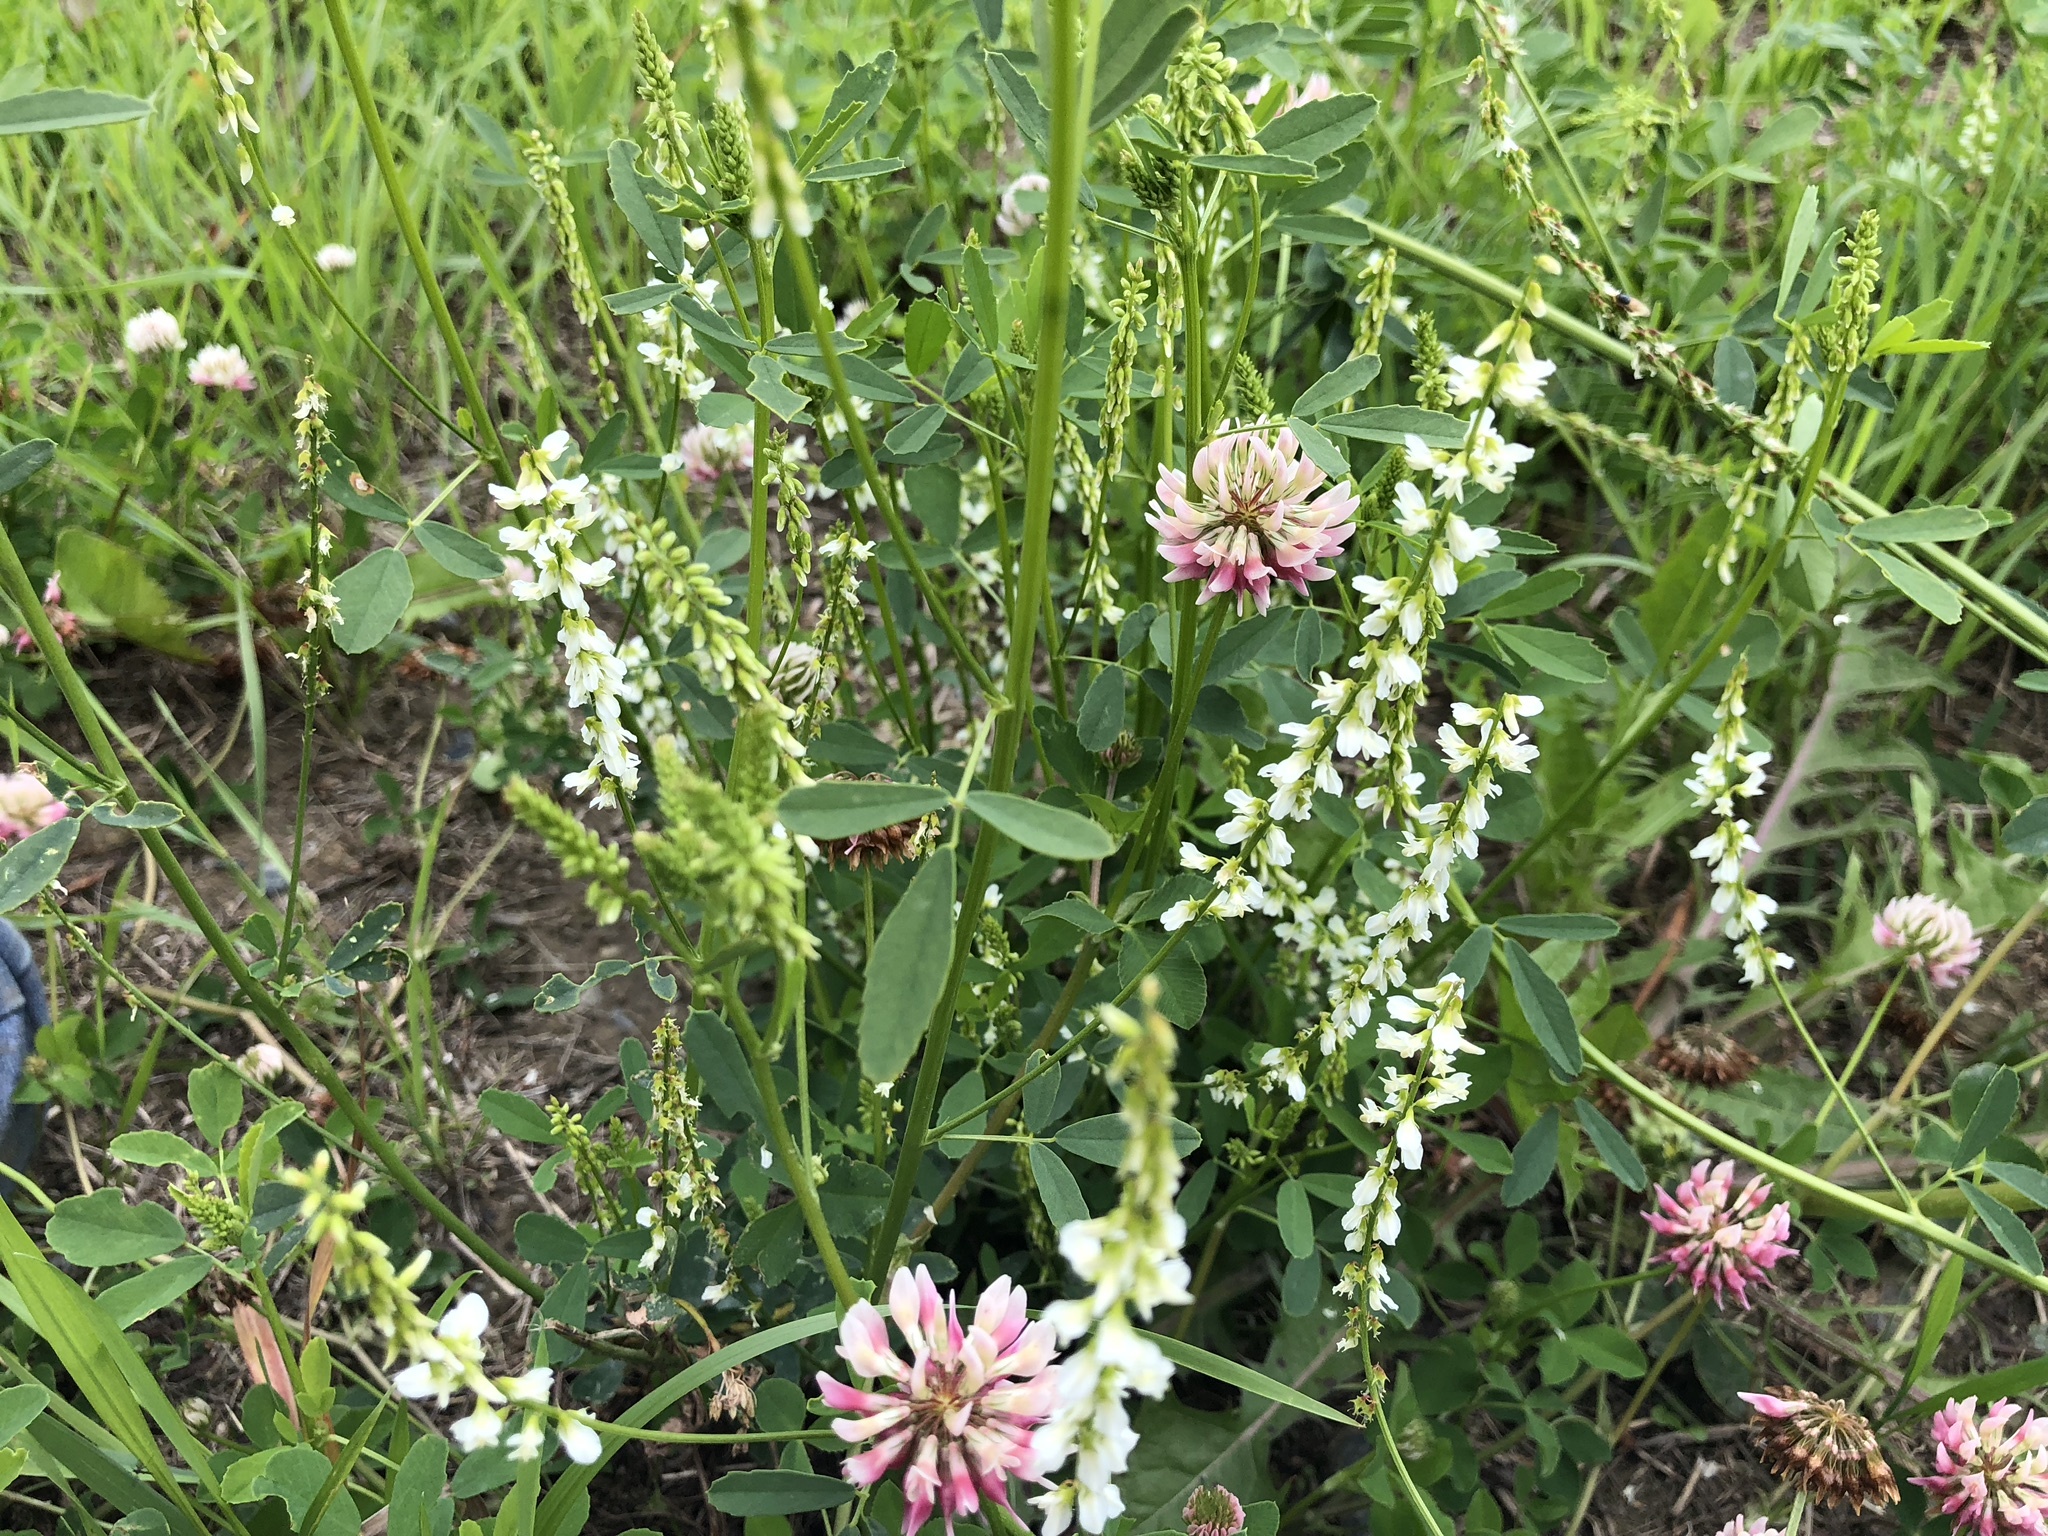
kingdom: Plantae
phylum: Tracheophyta
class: Magnoliopsida
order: Fabales
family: Fabaceae
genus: Melilotus
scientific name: Melilotus albus
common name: White melilot
